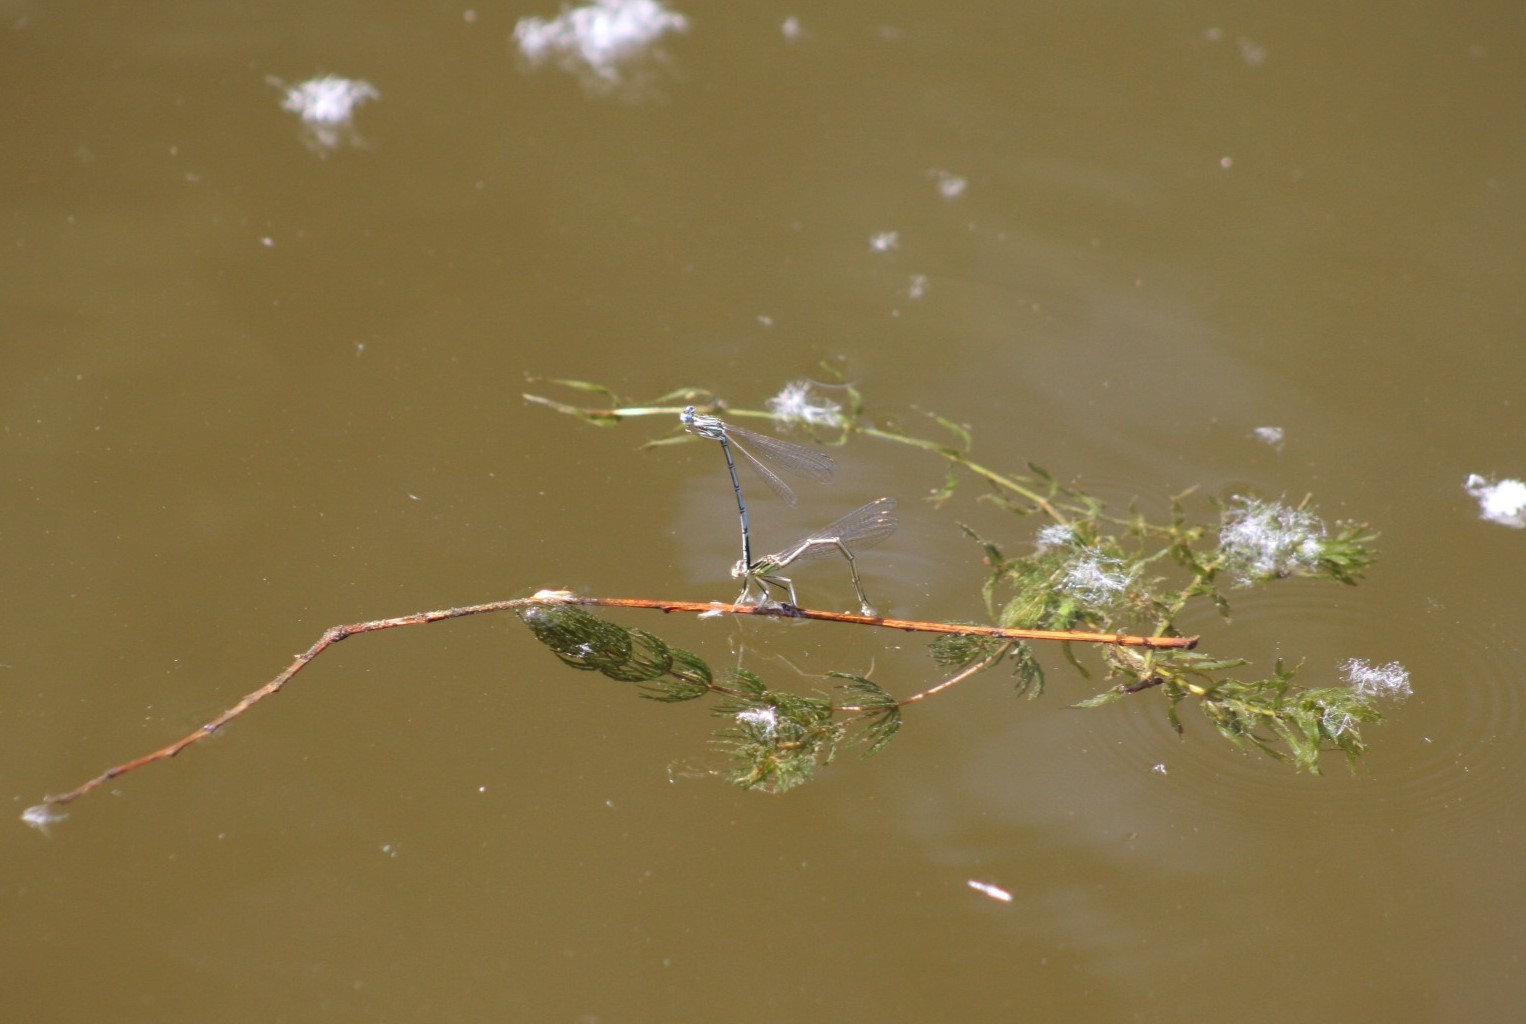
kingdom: Animalia
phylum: Arthropoda
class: Insecta
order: Odonata
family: Platycnemididae
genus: Platycnemis
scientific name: Platycnemis pennipes
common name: White-legged damselfly
